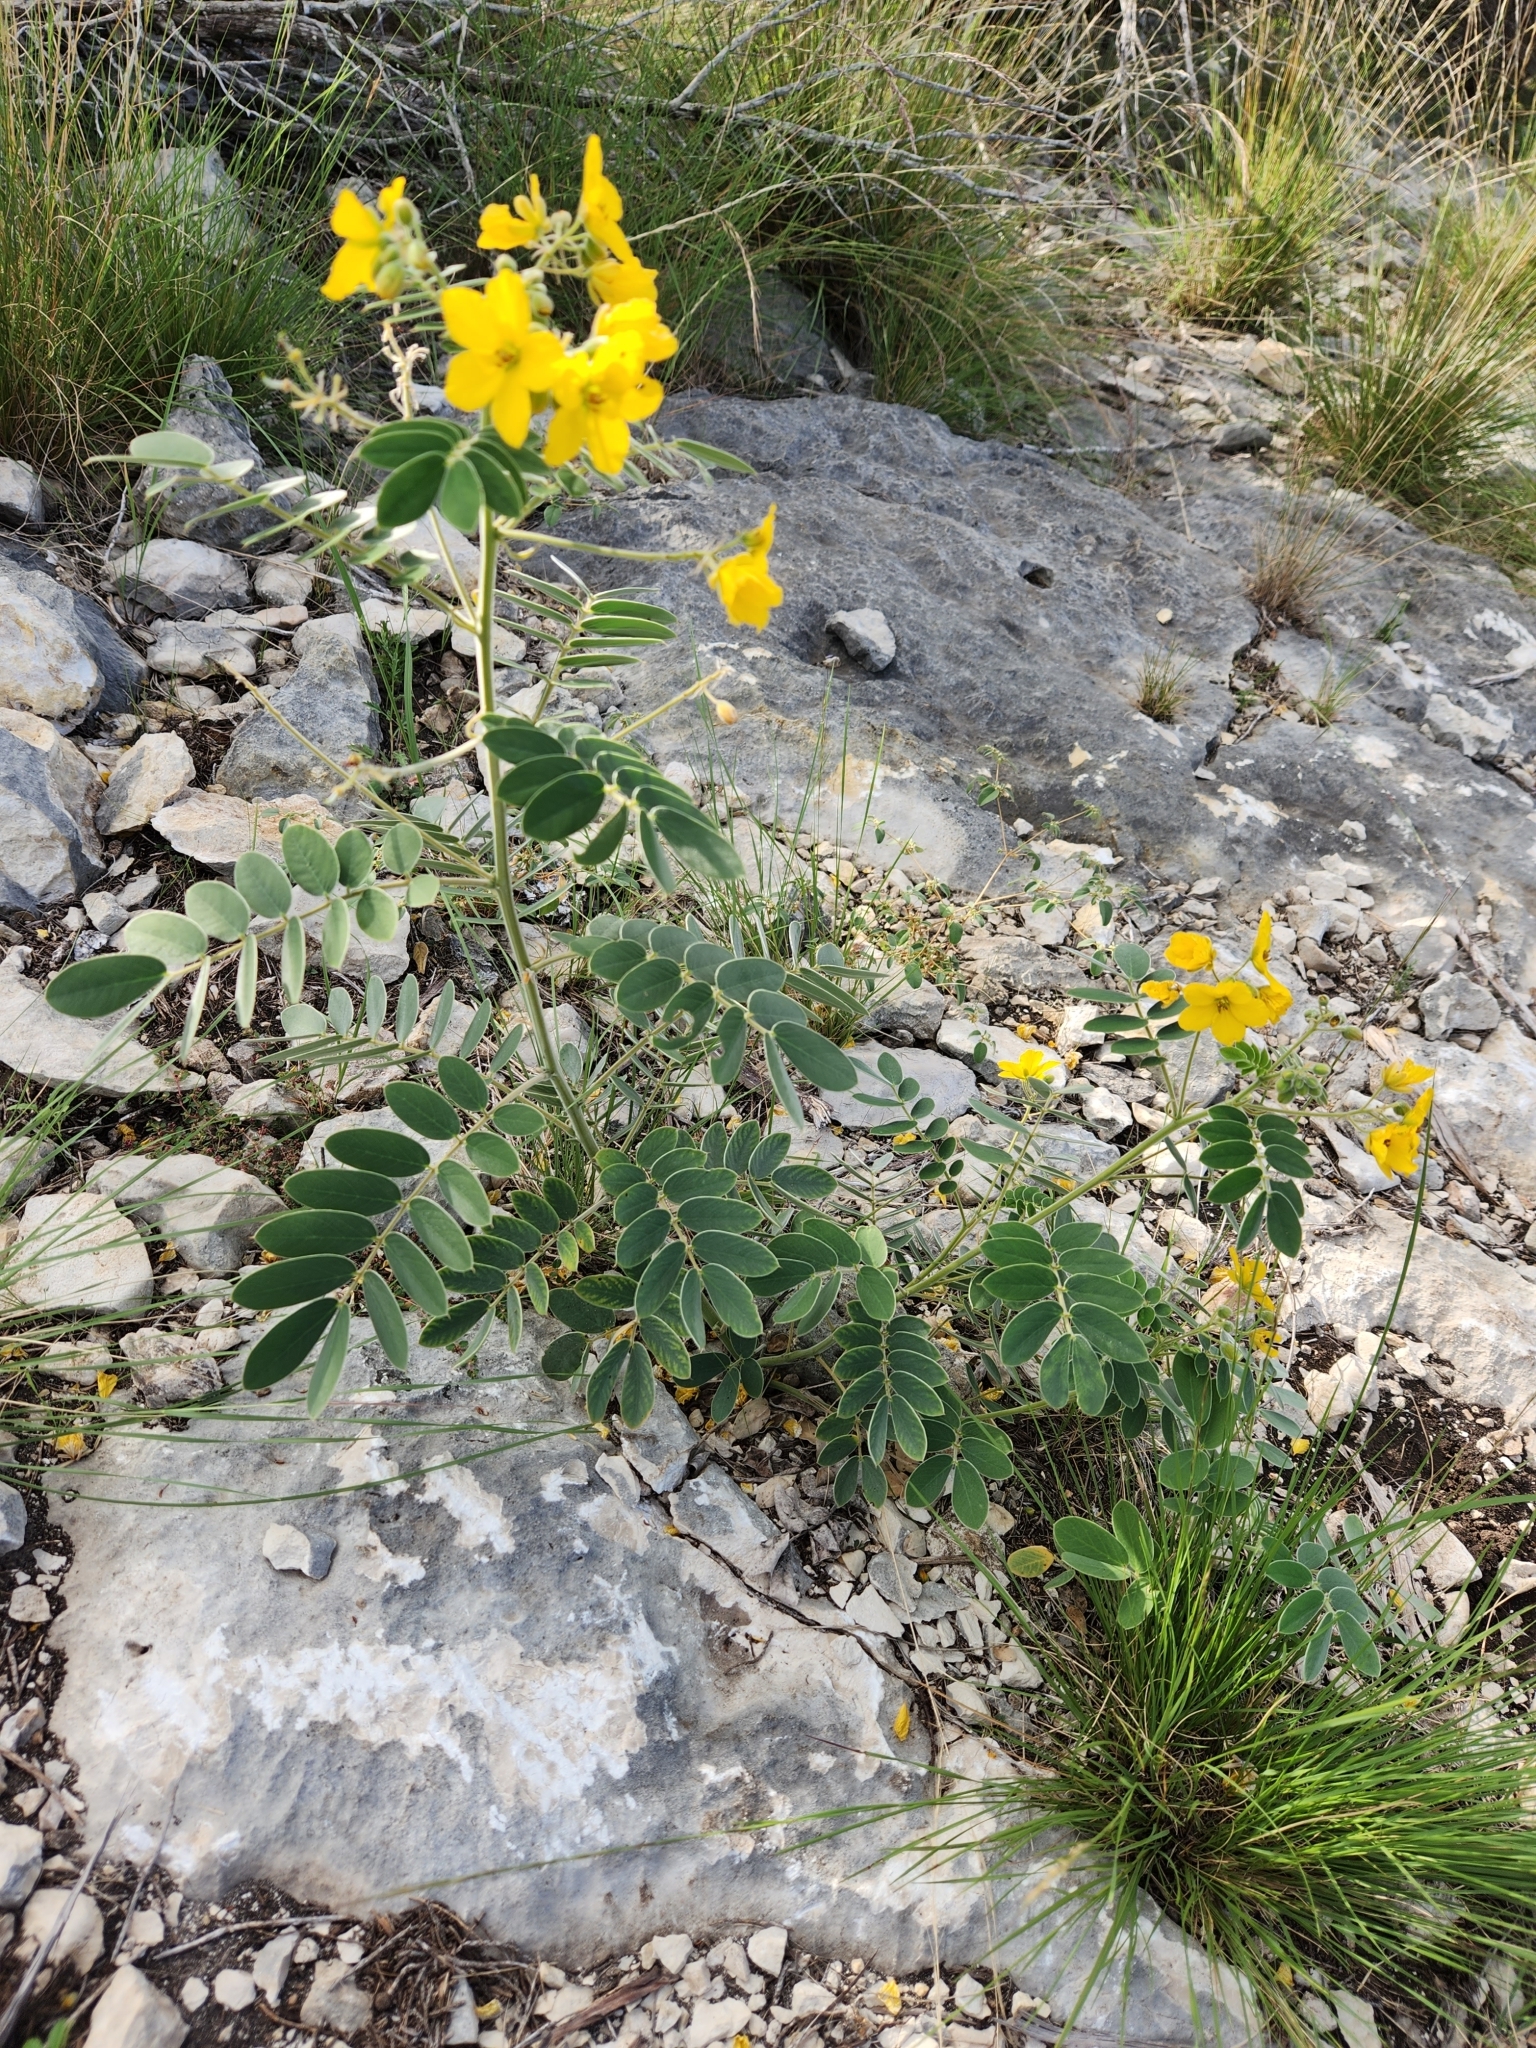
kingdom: Plantae
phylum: Tracheophyta
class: Magnoliopsida
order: Fabales
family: Fabaceae
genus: Senna
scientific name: Senna lindheimeriana
